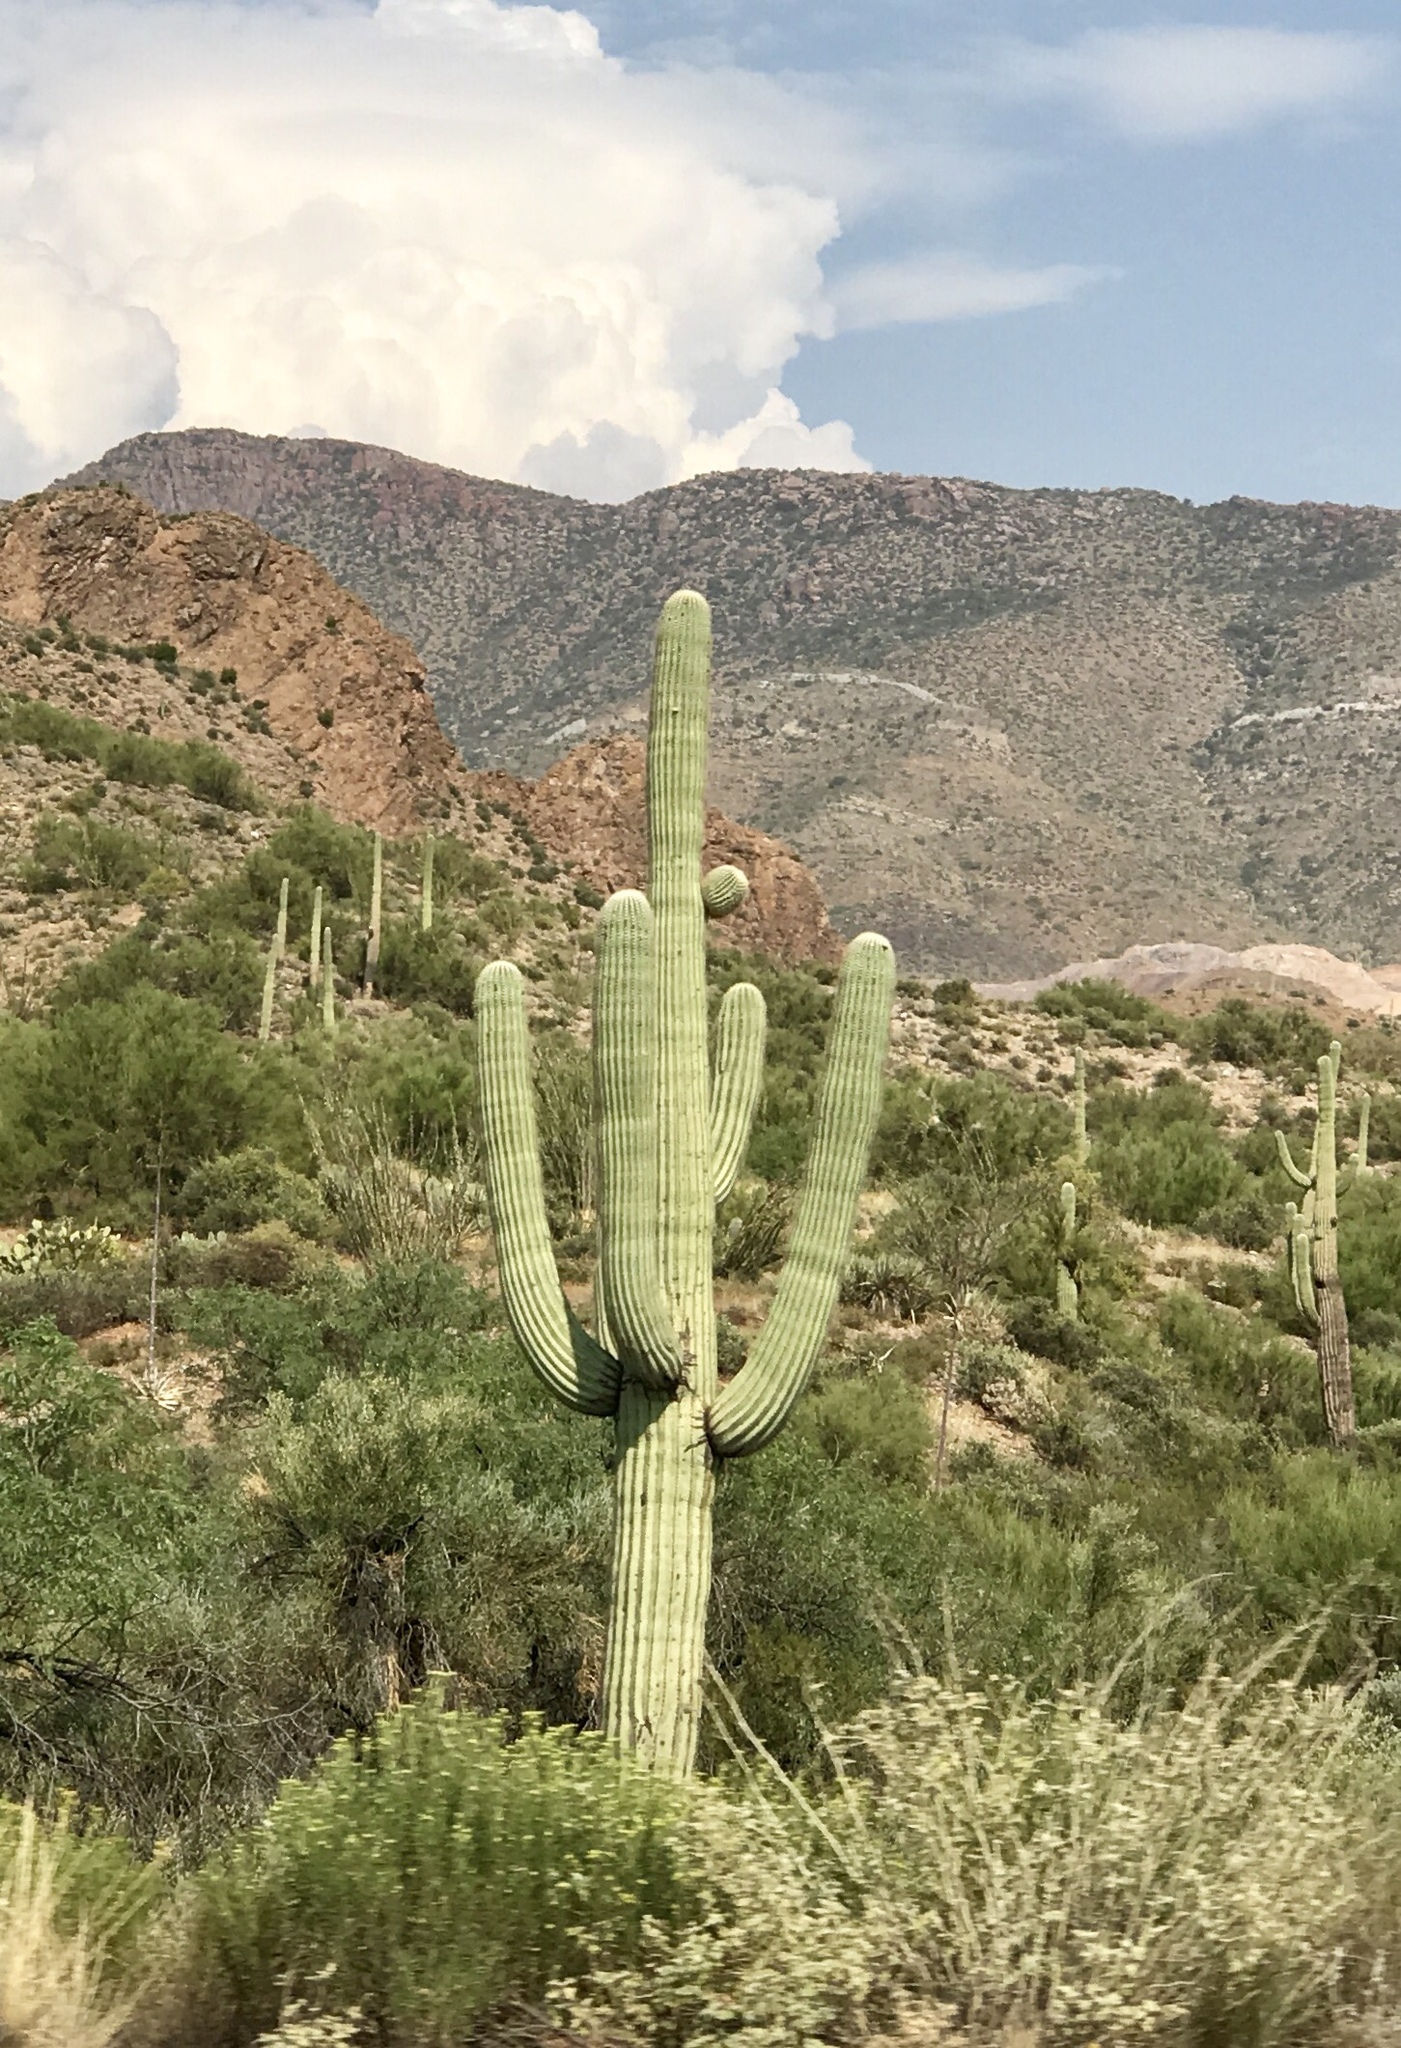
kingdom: Plantae
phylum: Tracheophyta
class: Magnoliopsida
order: Caryophyllales
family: Cactaceae
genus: Carnegiea
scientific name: Carnegiea gigantea
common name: Saguaro
